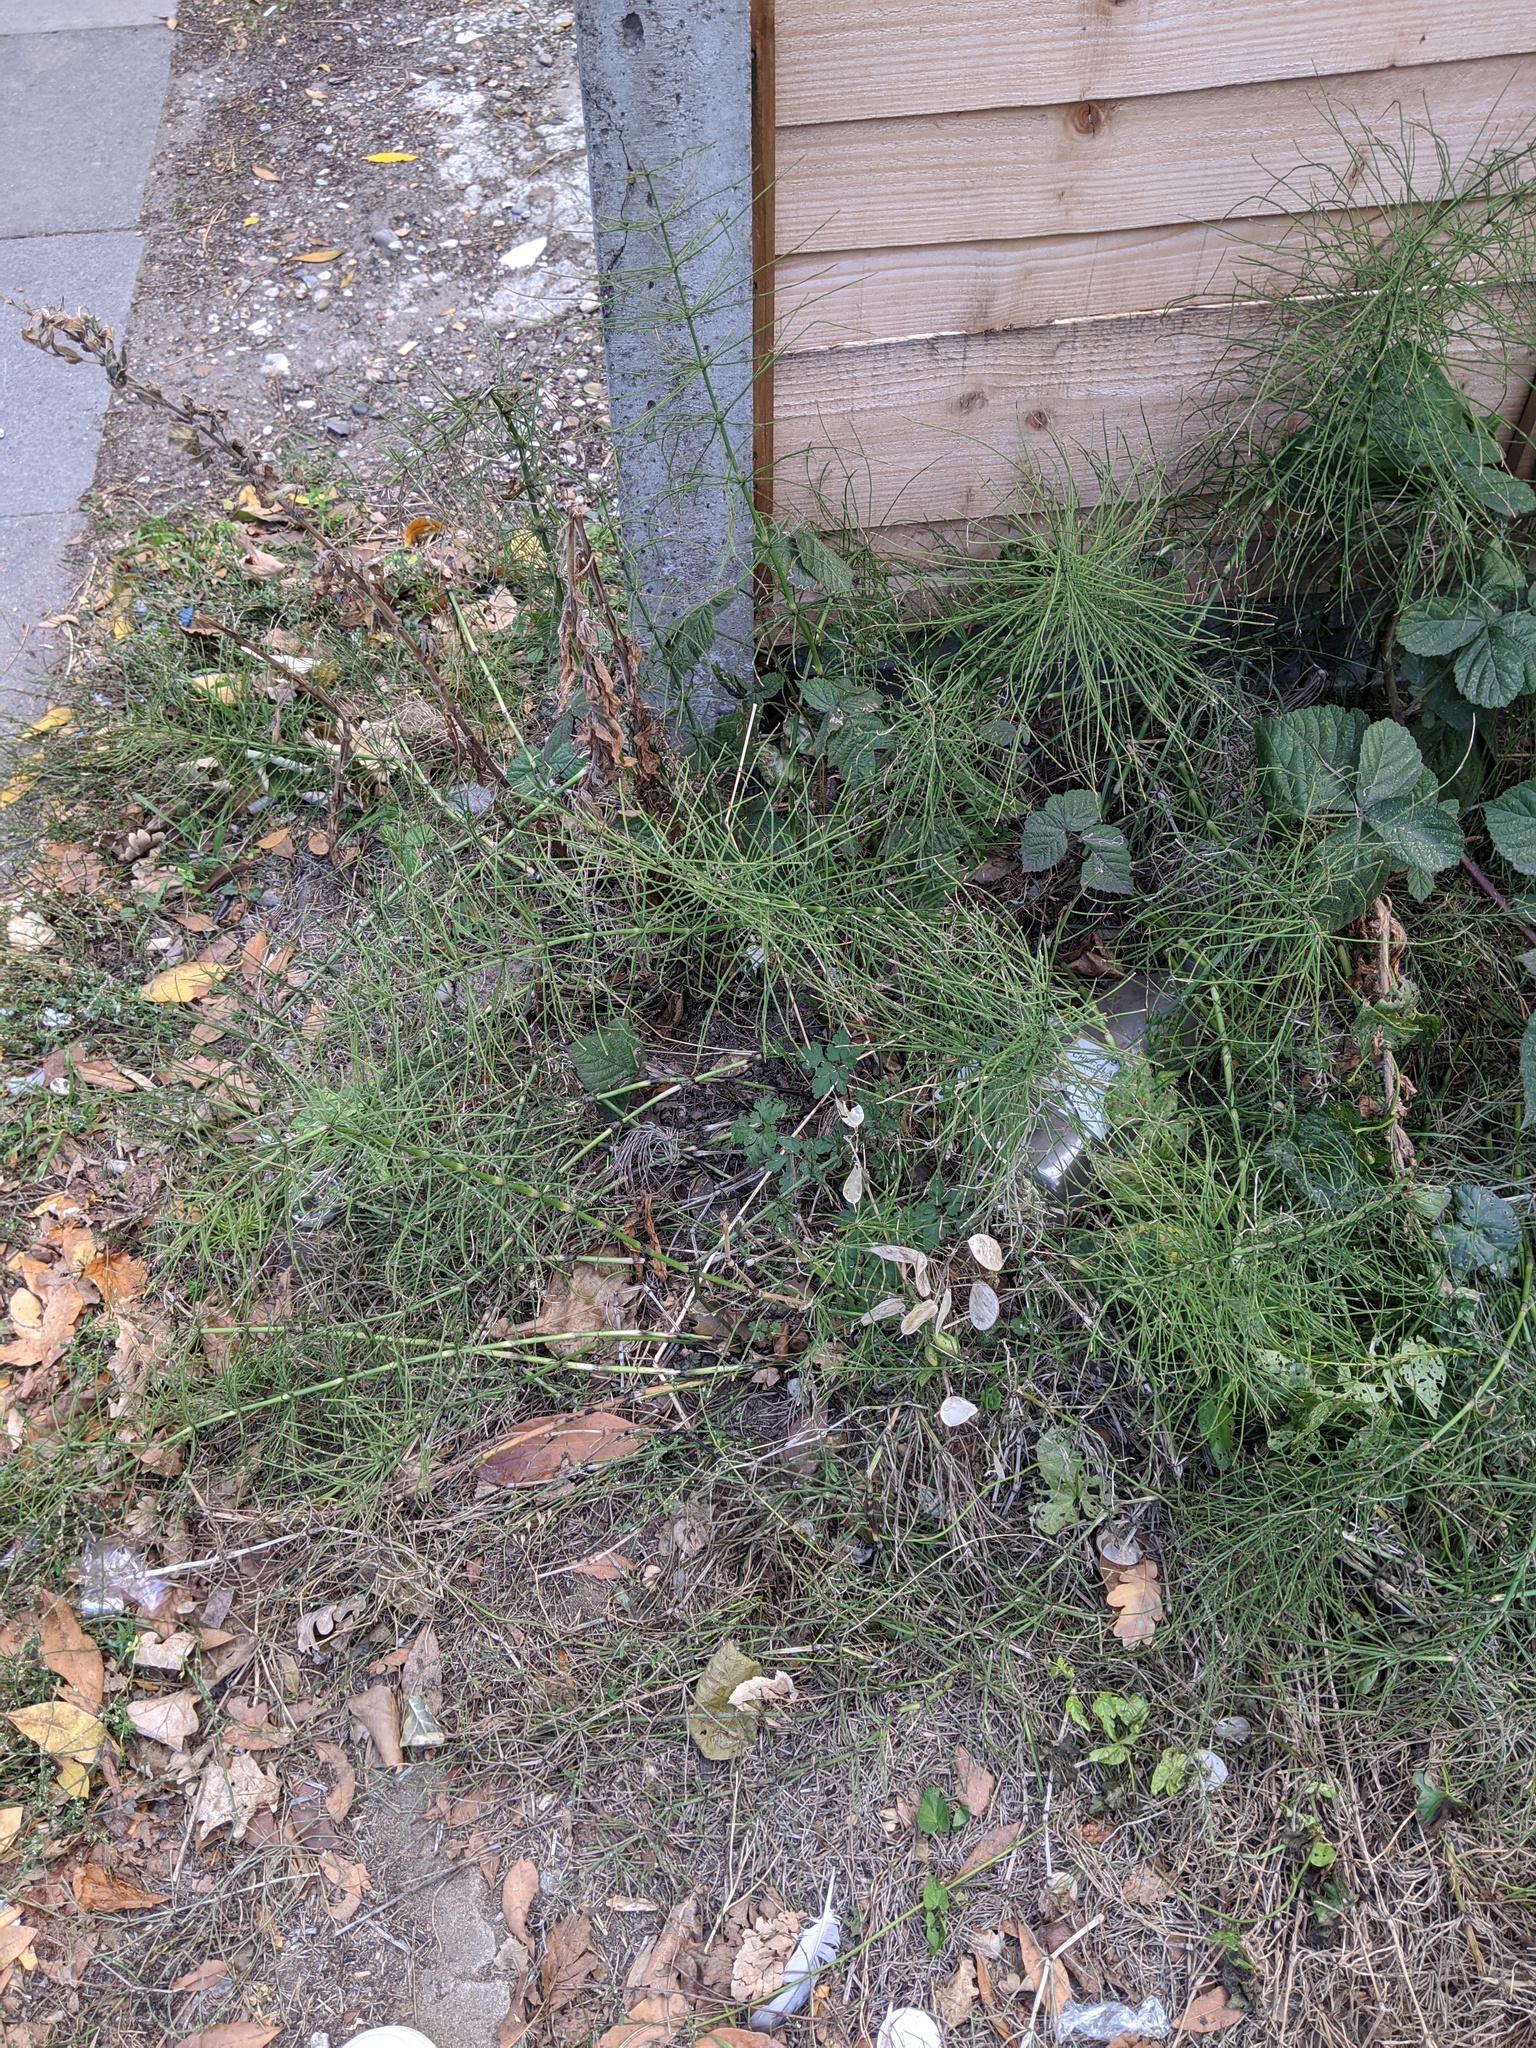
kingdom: Plantae
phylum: Tracheophyta
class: Polypodiopsida
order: Equisetales
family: Equisetaceae
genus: Equisetum
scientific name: Equisetum arvense
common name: Field horsetail
